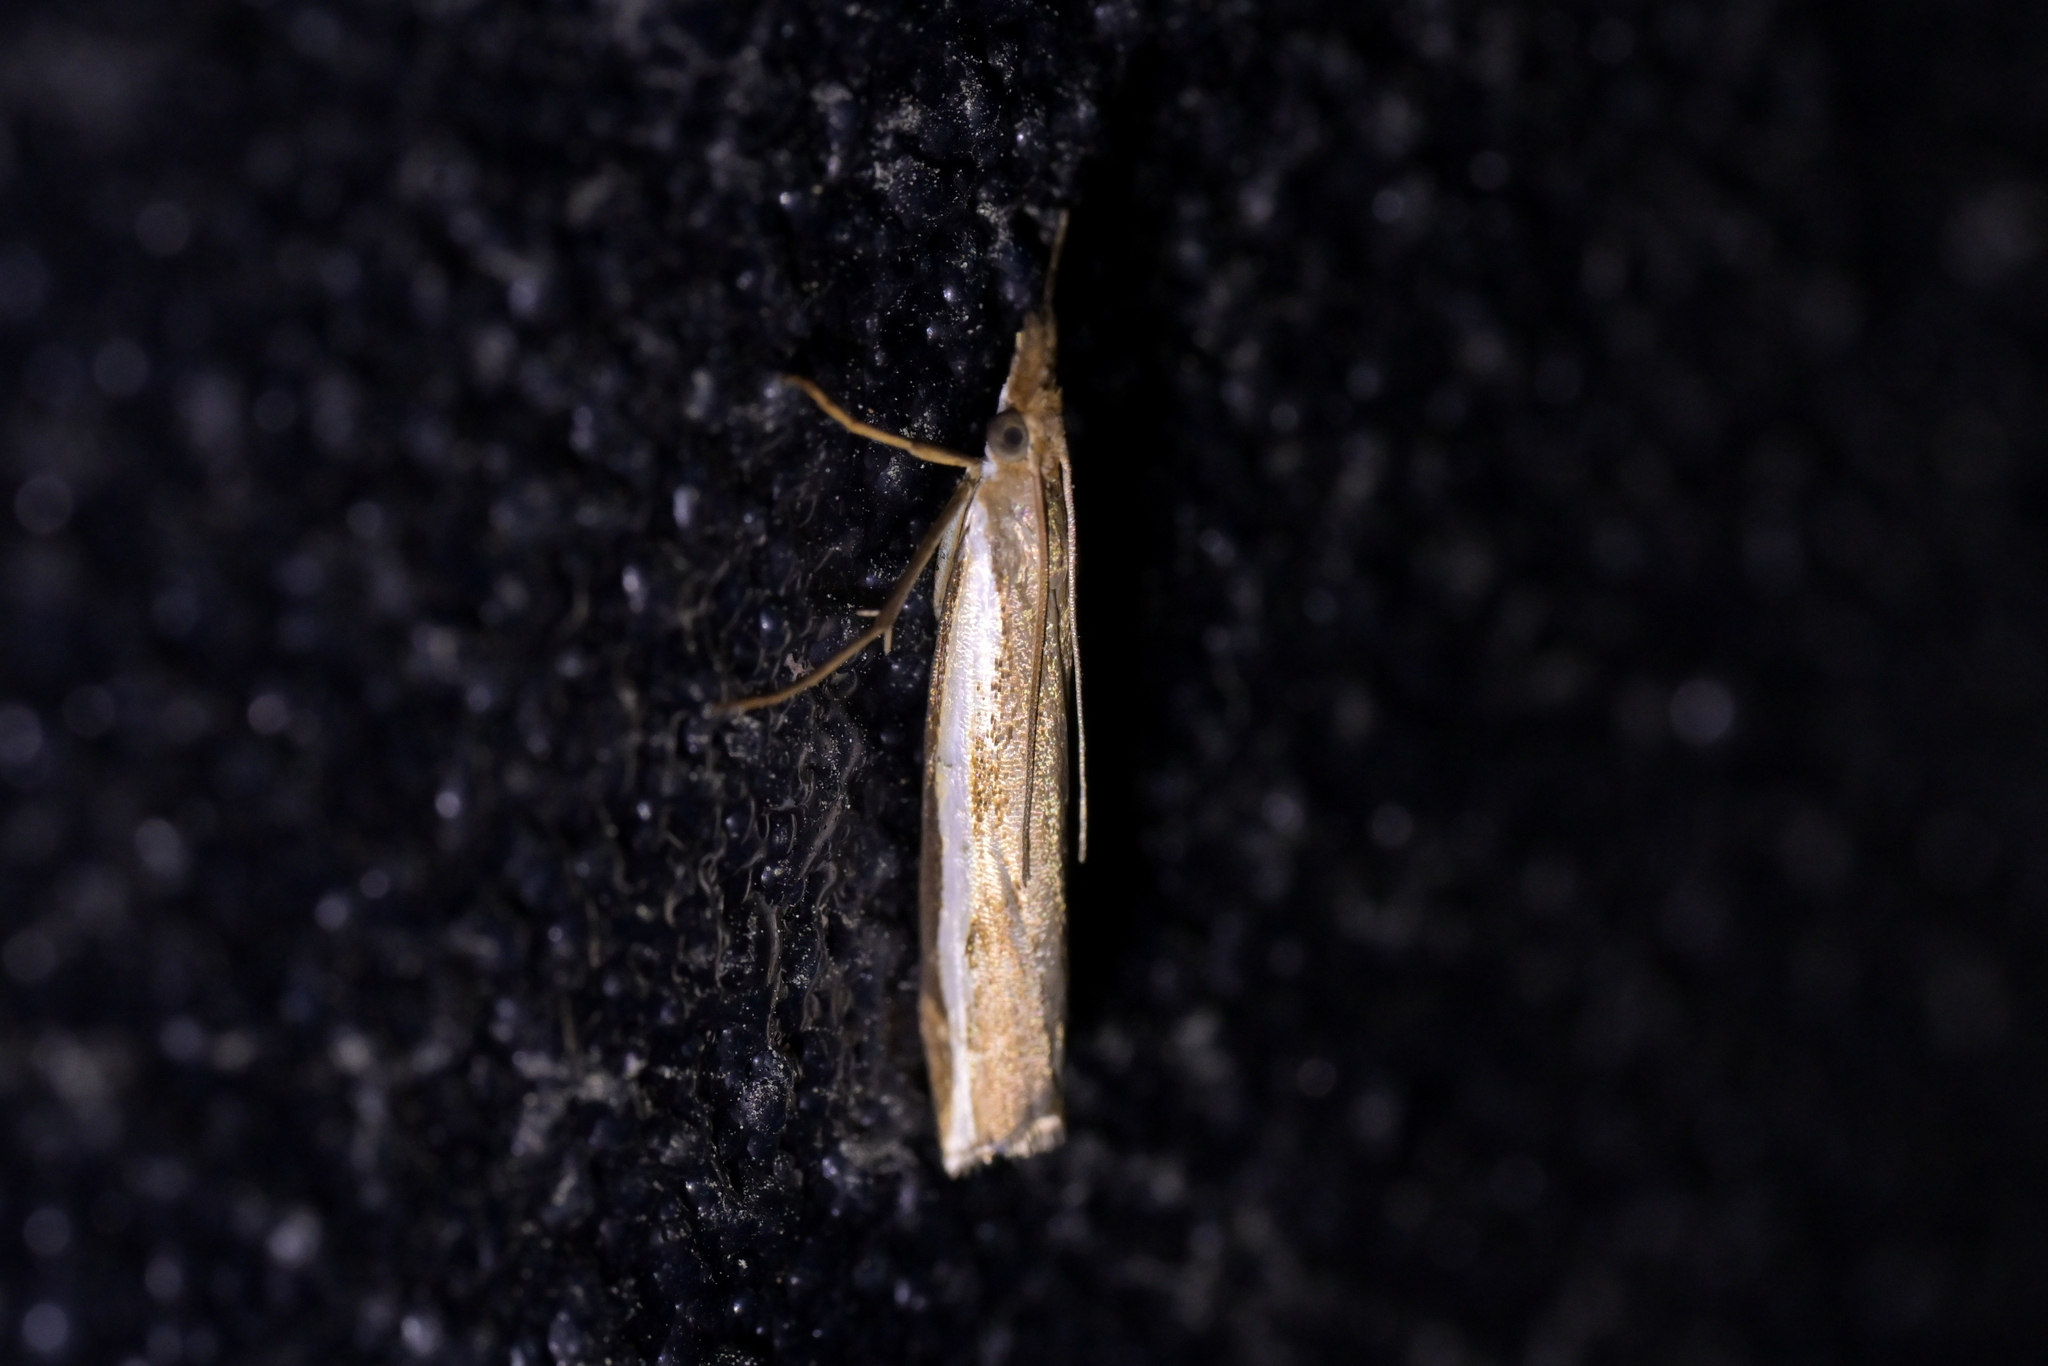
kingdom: Animalia
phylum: Arthropoda
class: Insecta
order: Lepidoptera
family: Crambidae
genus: Orocrambus
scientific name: Orocrambus flexuosellus
